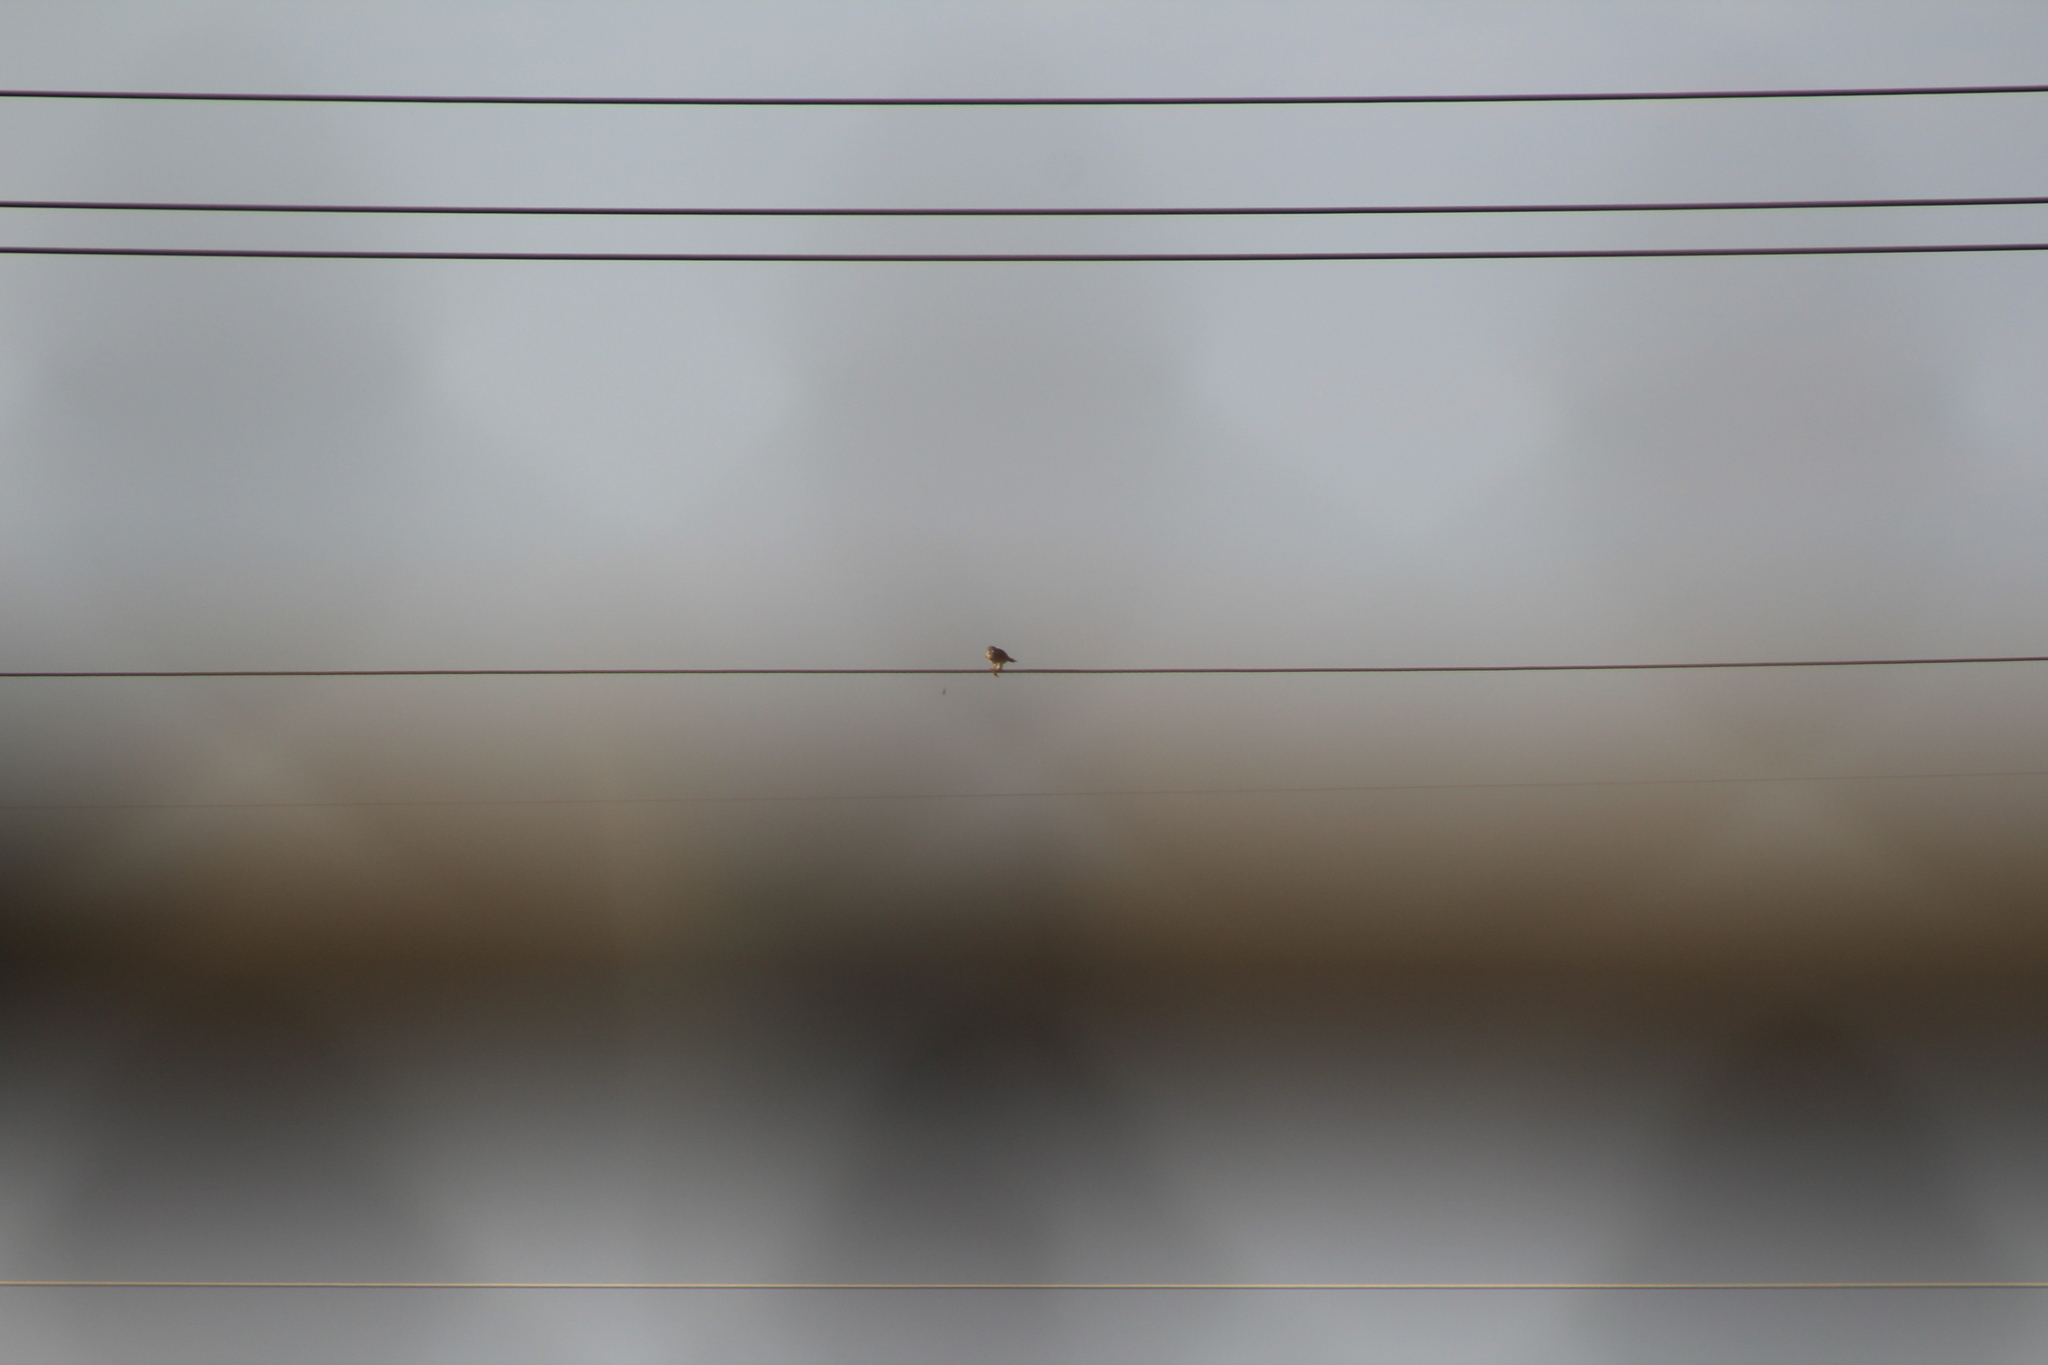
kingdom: Animalia
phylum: Chordata
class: Aves
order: Falconiformes
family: Falconidae
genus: Falco
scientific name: Falco sparverius
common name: American kestrel
